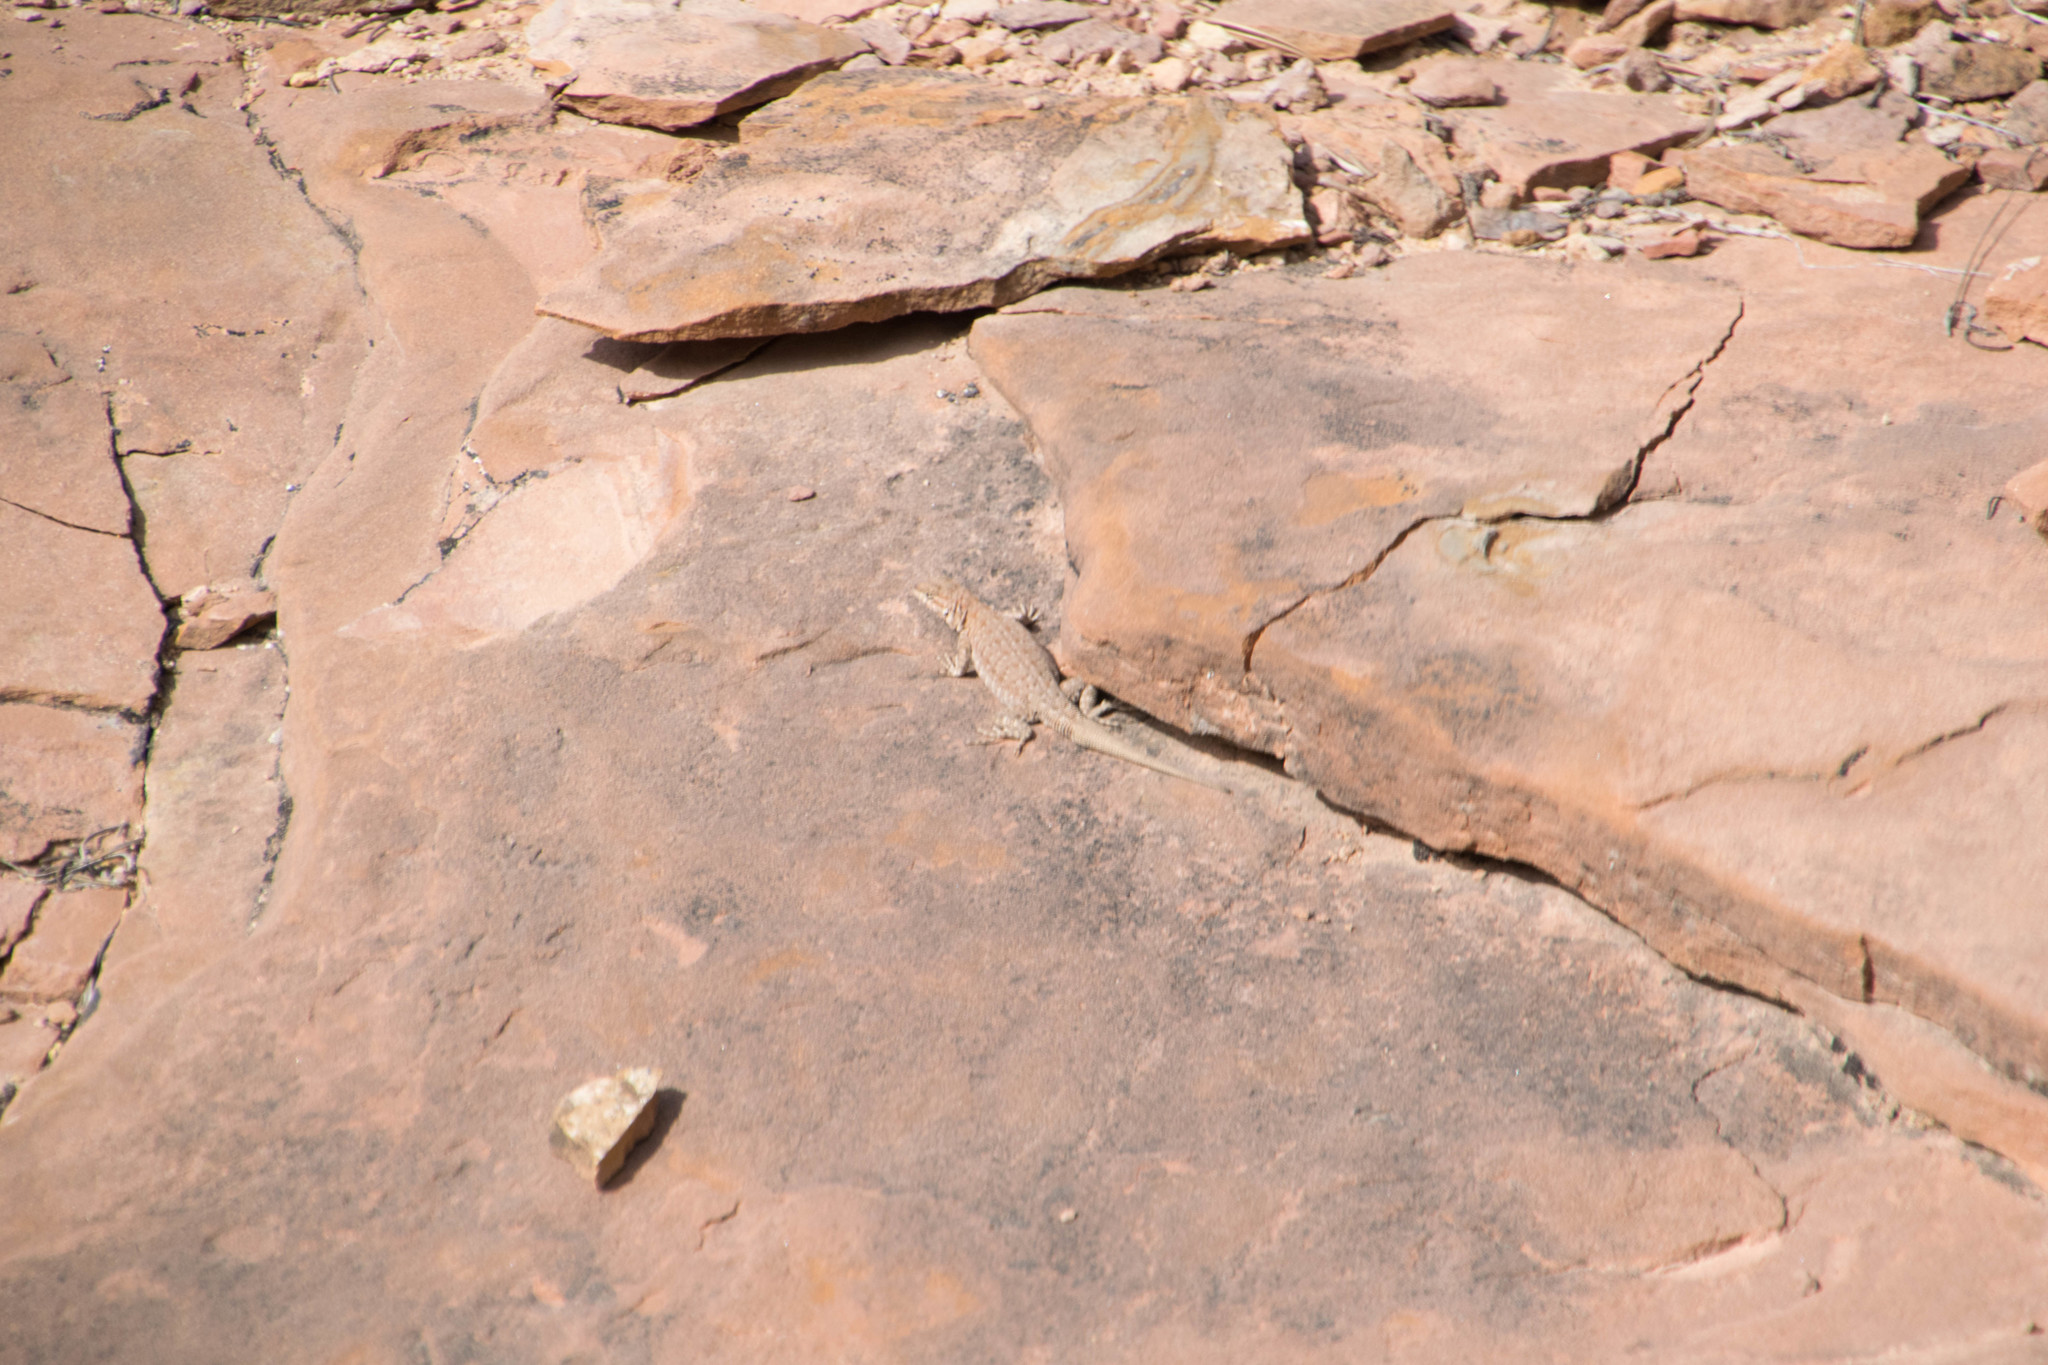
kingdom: Animalia
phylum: Chordata
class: Squamata
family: Phrynosomatidae
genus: Sceloporus
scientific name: Sceloporus tristichus
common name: Plateau fence lizard
